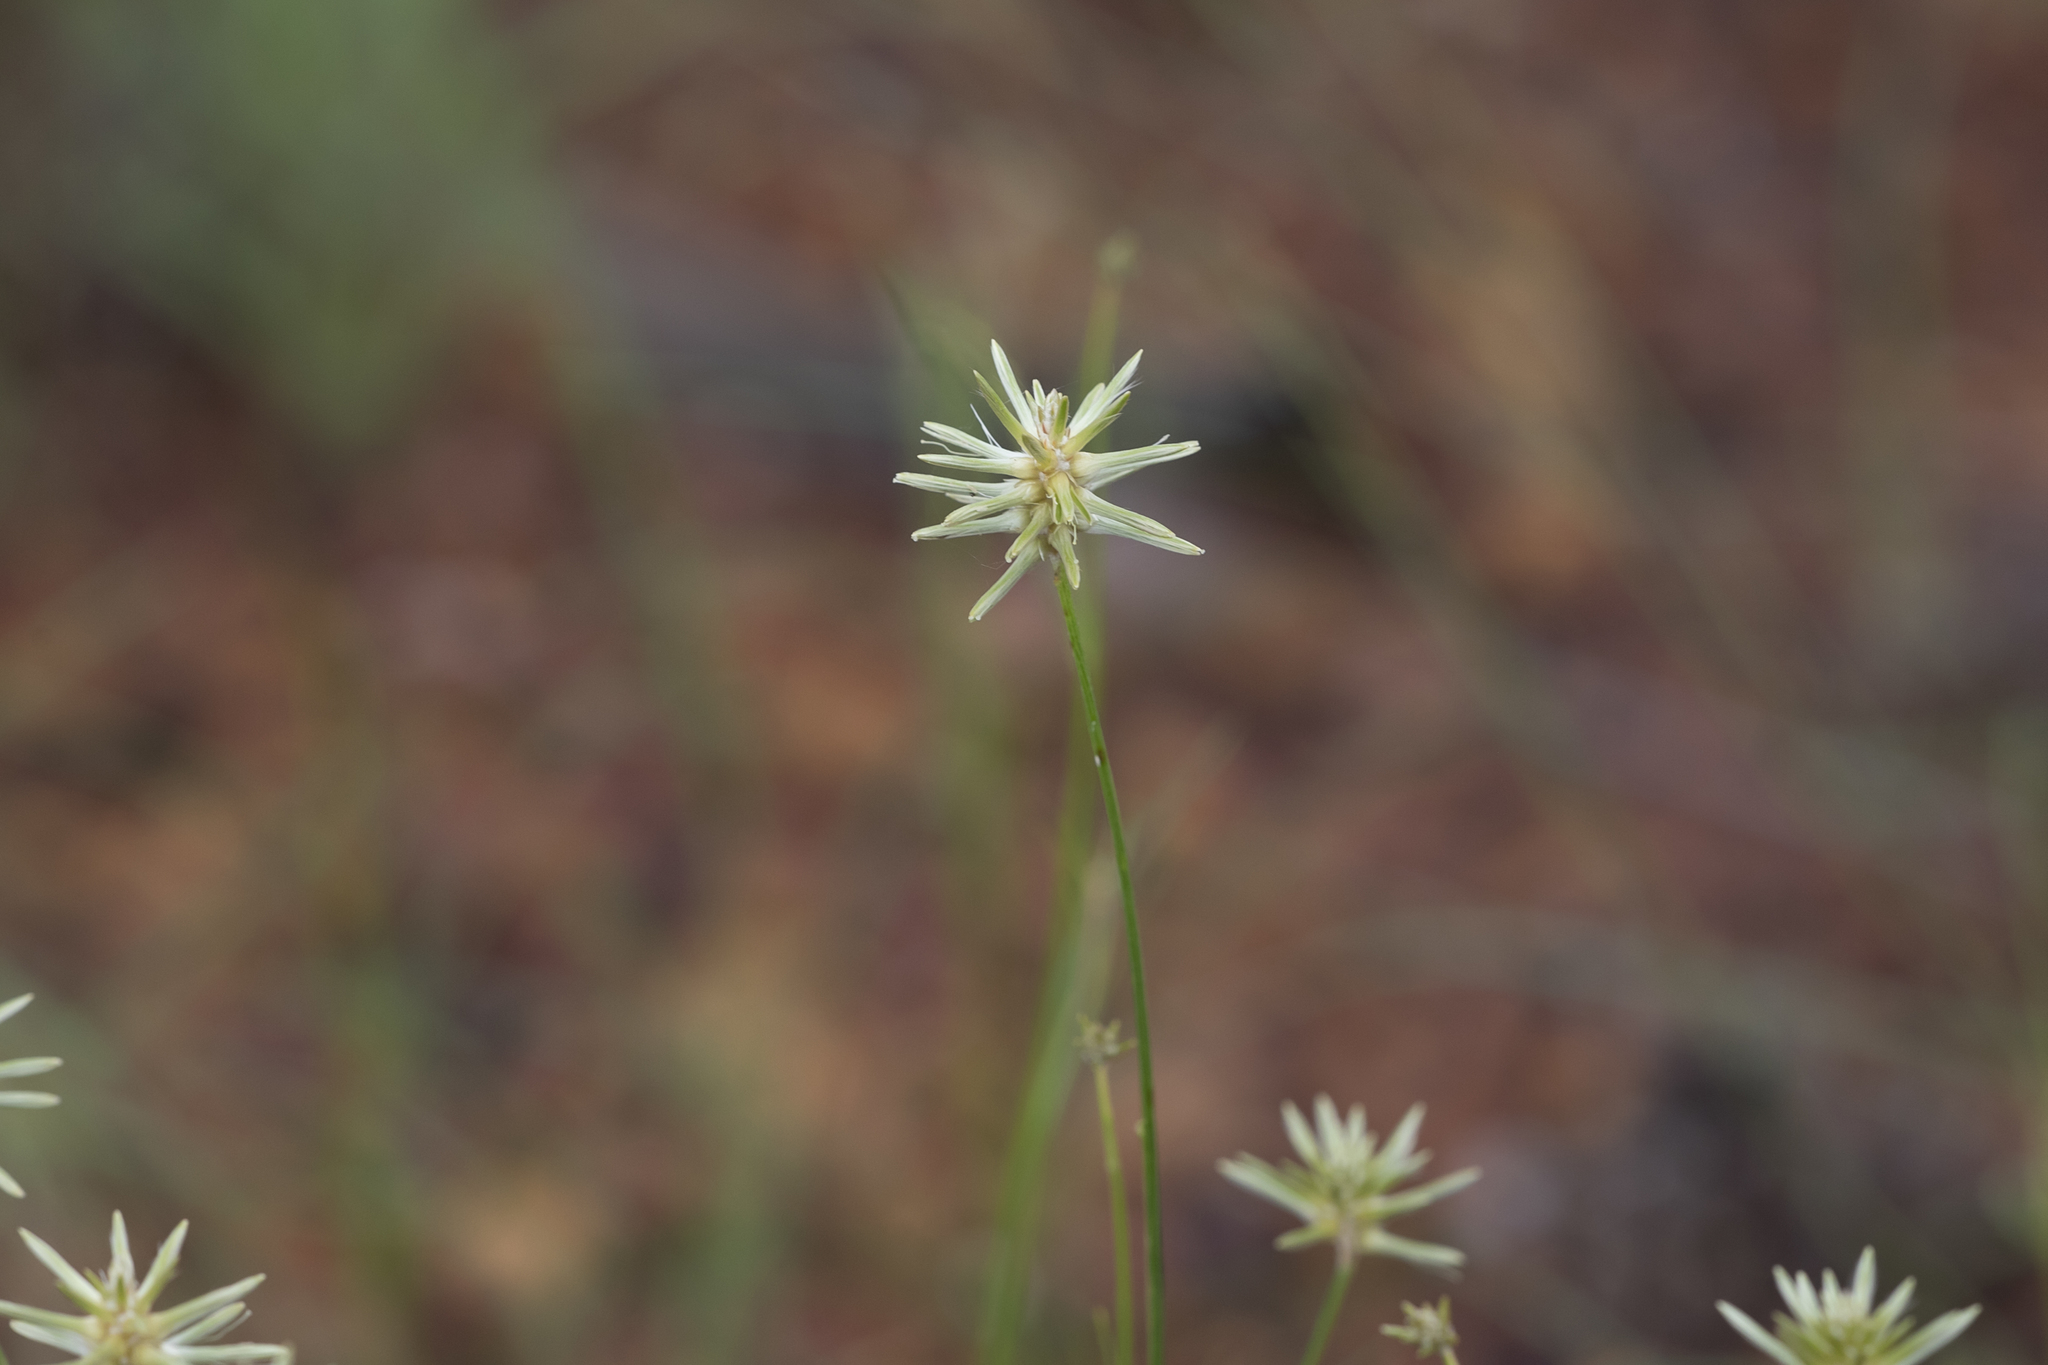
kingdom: Plantae
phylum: Tracheophyta
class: Magnoliopsida
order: Caryophyllales
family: Amaranthaceae
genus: Ptilotus
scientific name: Ptilotus fusiformis
